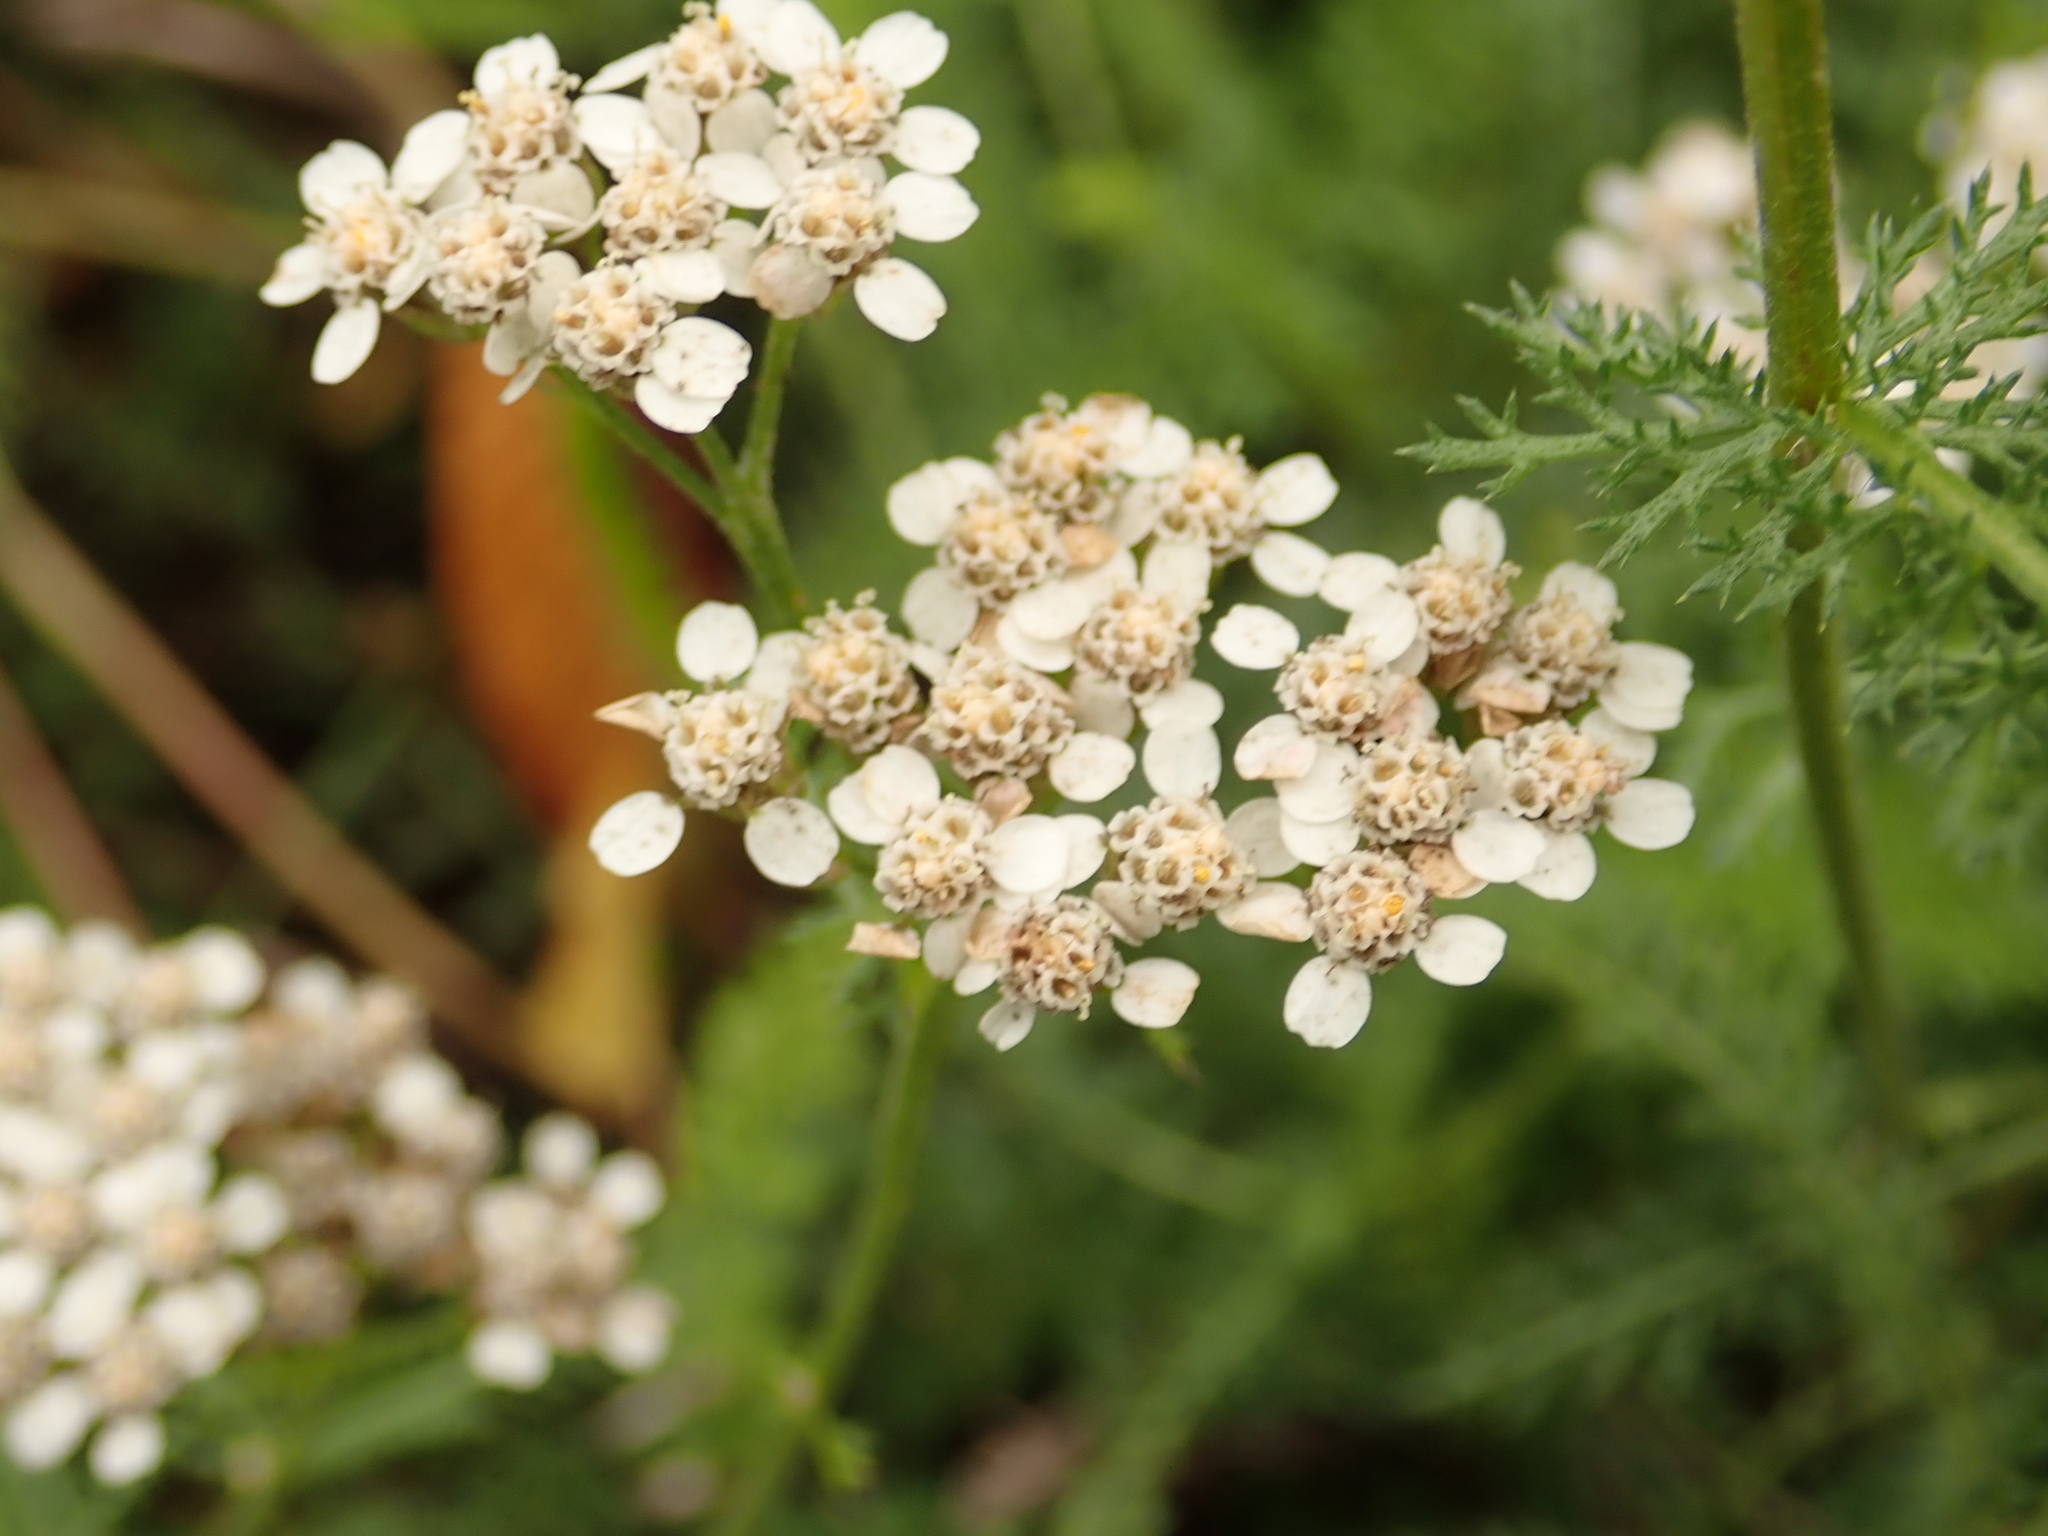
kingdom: Plantae
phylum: Tracheophyta
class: Magnoliopsida
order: Asterales
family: Asteraceae
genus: Achillea
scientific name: Achillea millefolium
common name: Yarrow
